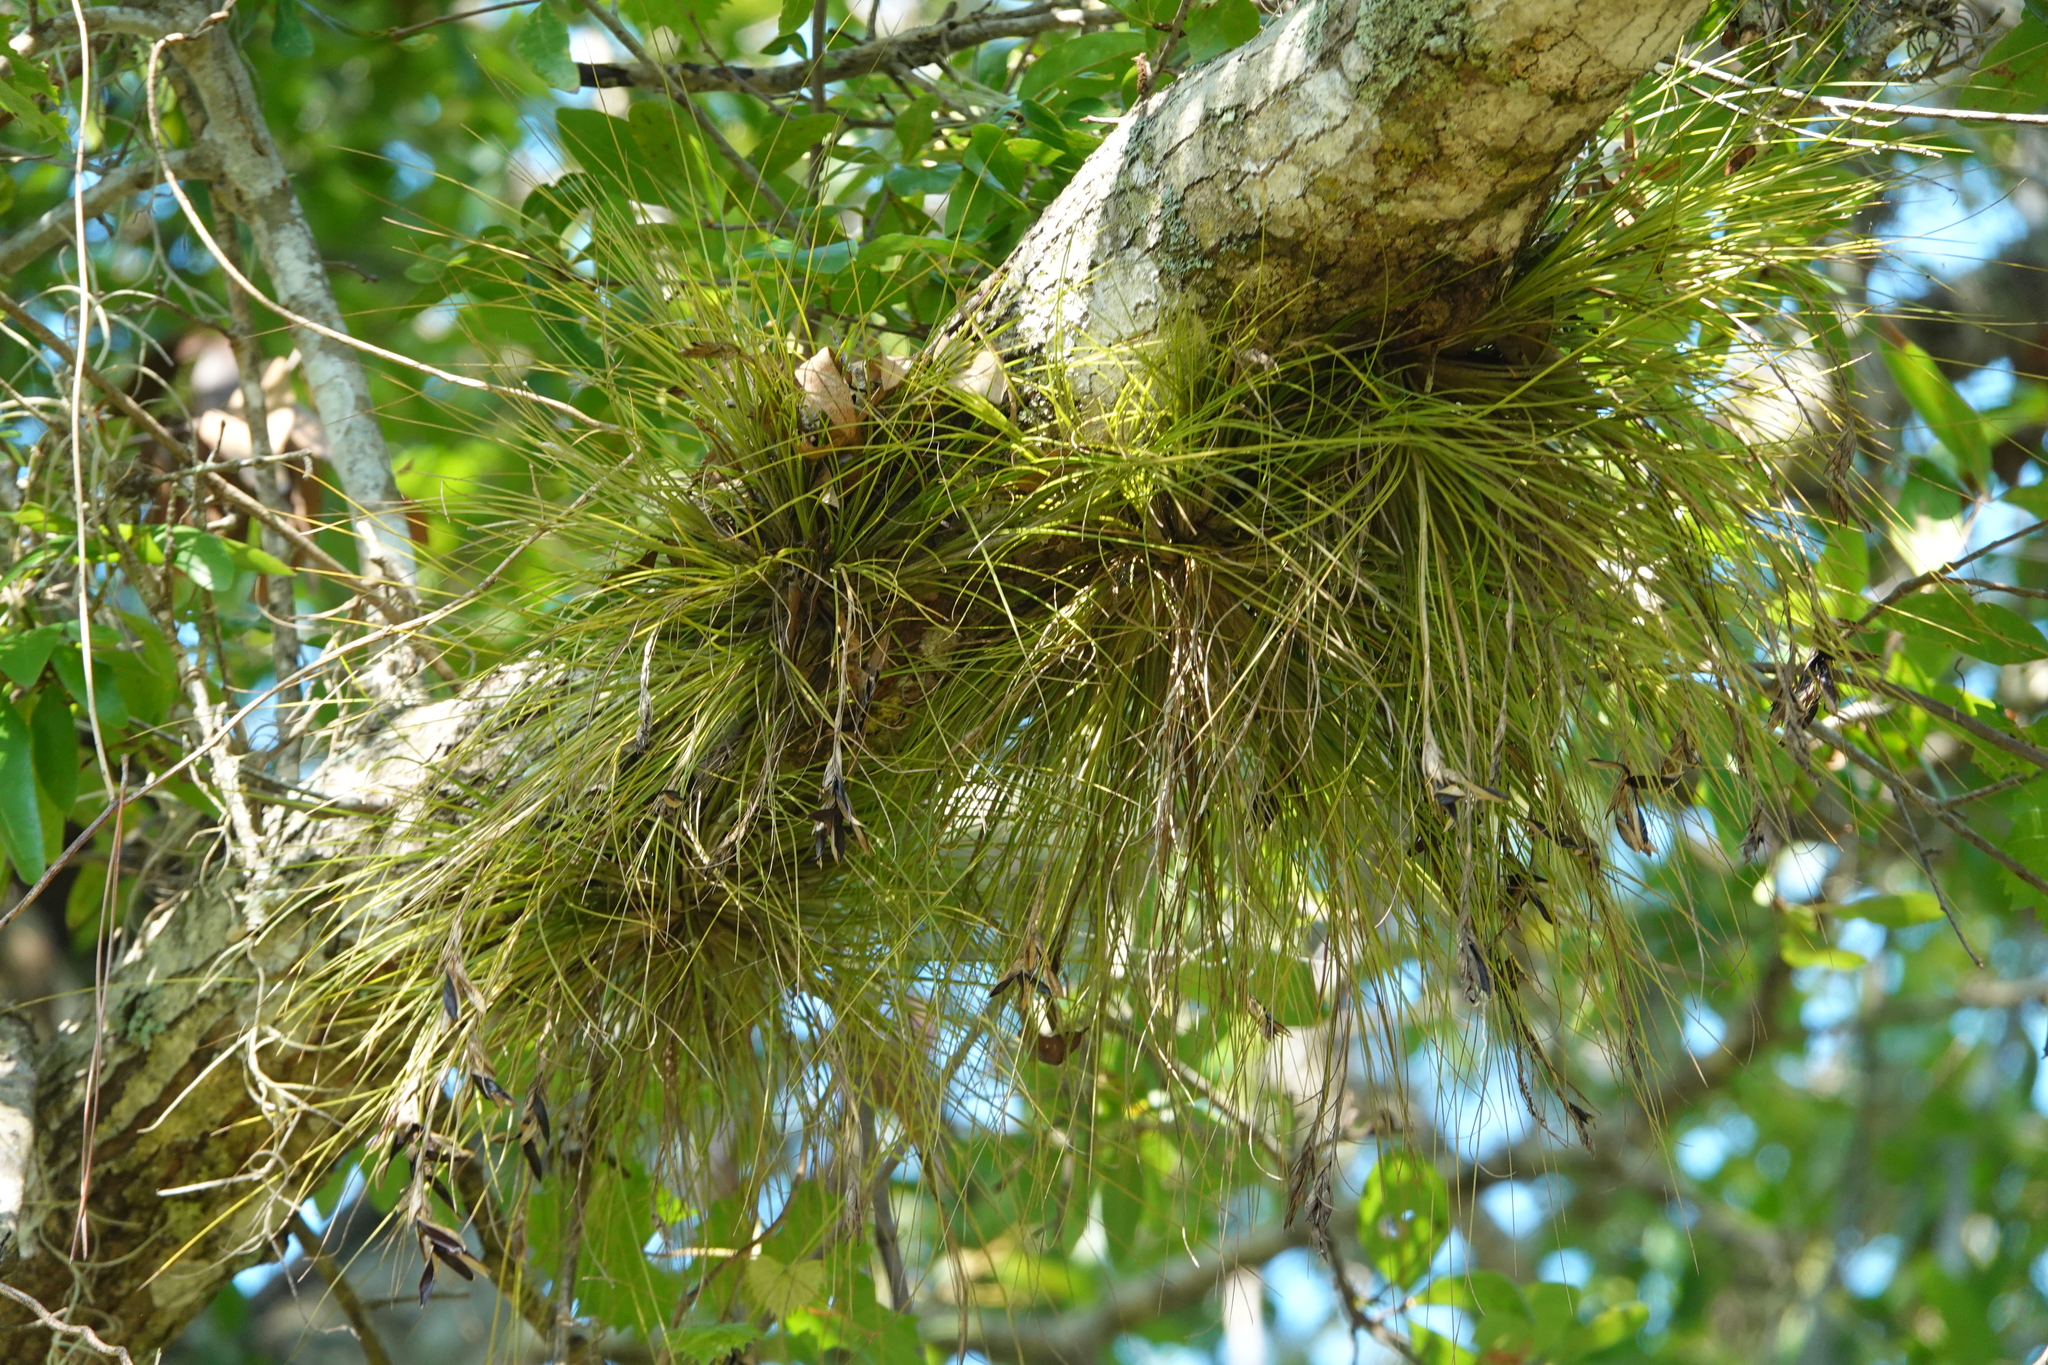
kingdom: Plantae
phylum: Tracheophyta
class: Liliopsida
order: Poales
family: Bromeliaceae
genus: Tillandsia
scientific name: Tillandsia setacea
